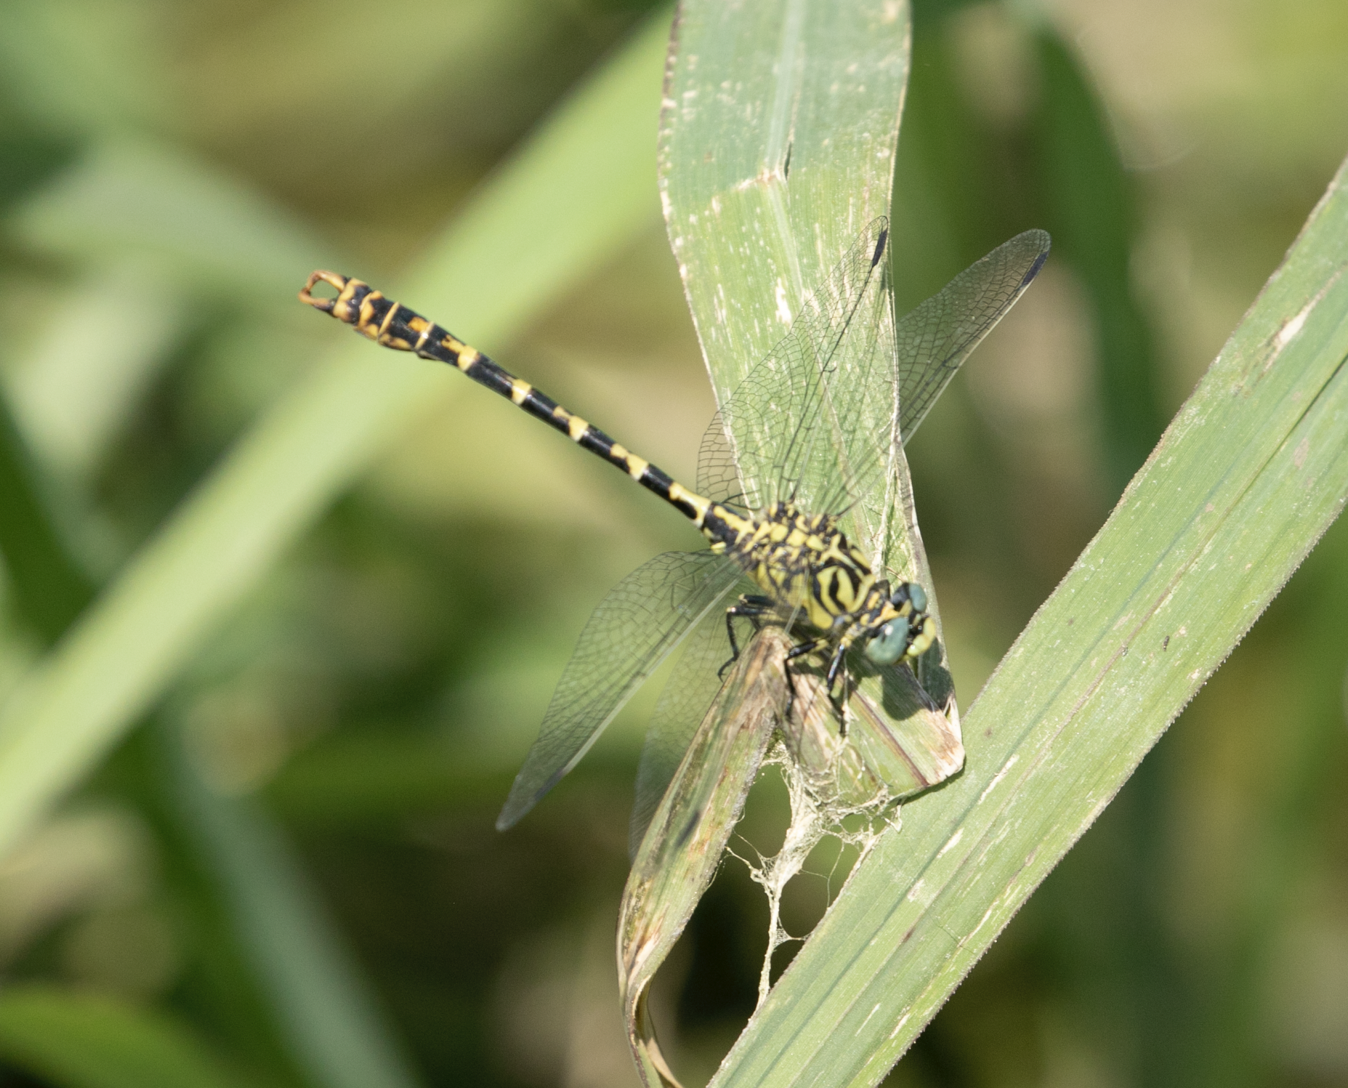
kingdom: Animalia
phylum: Arthropoda
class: Insecta
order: Odonata
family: Gomphidae
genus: Onychogomphus
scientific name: Onychogomphus forcipatus
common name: Small pincertail
